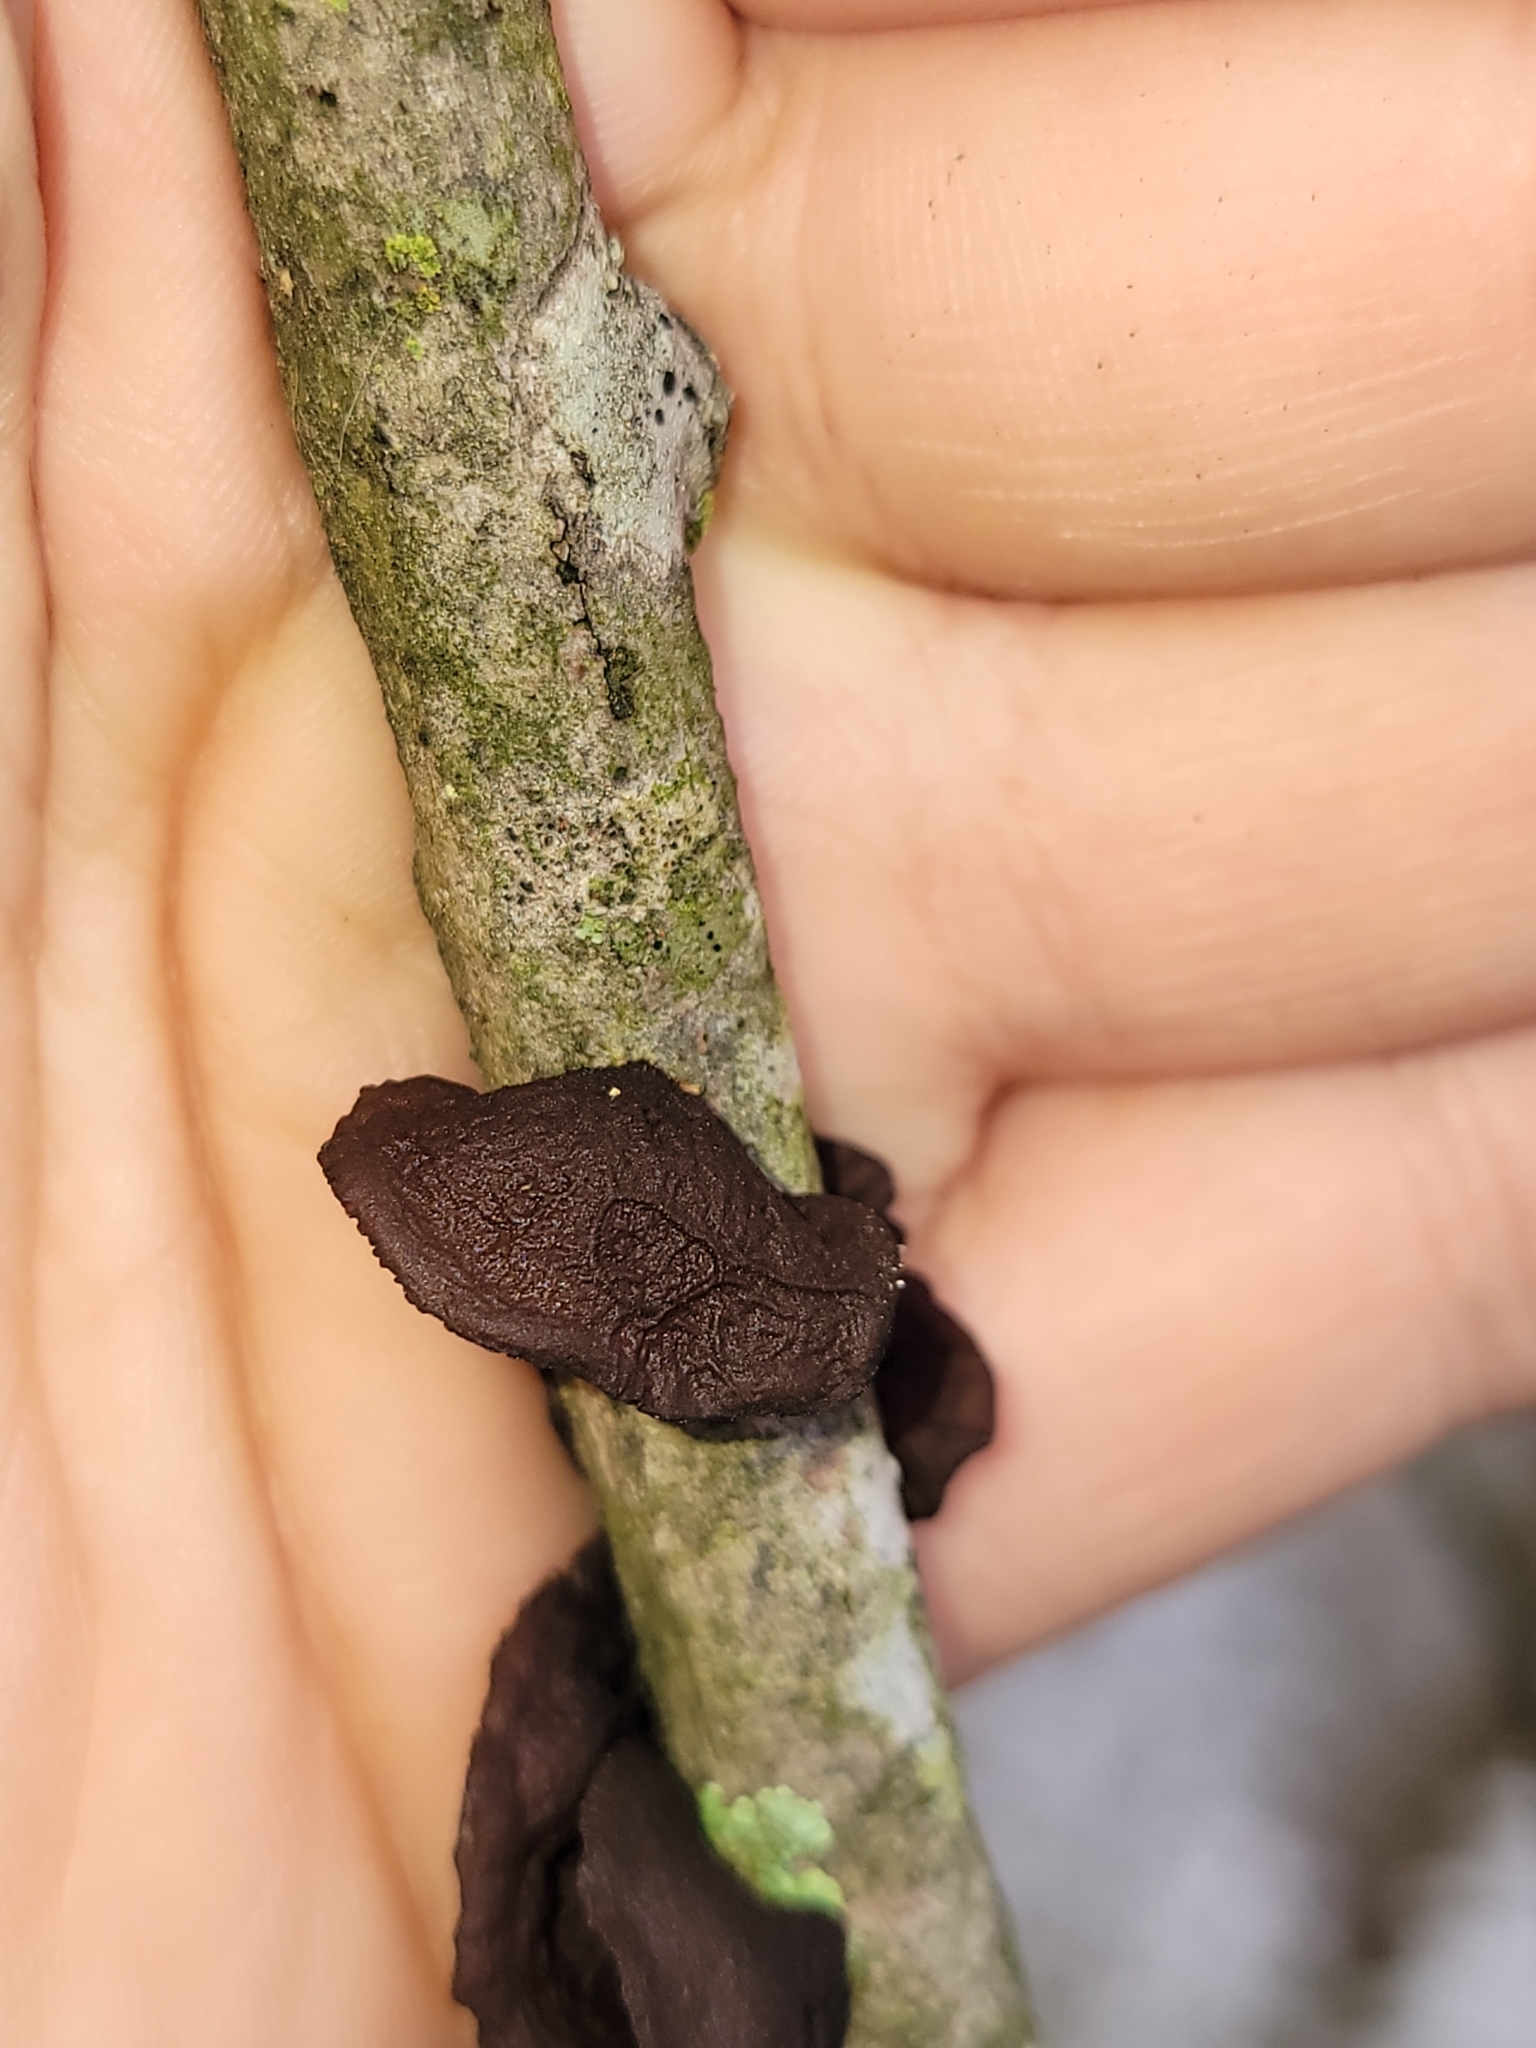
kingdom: Fungi
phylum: Basidiomycota
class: Agaricomycetes
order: Auriculariales
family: Auriculariaceae
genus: Exidia
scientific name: Exidia
